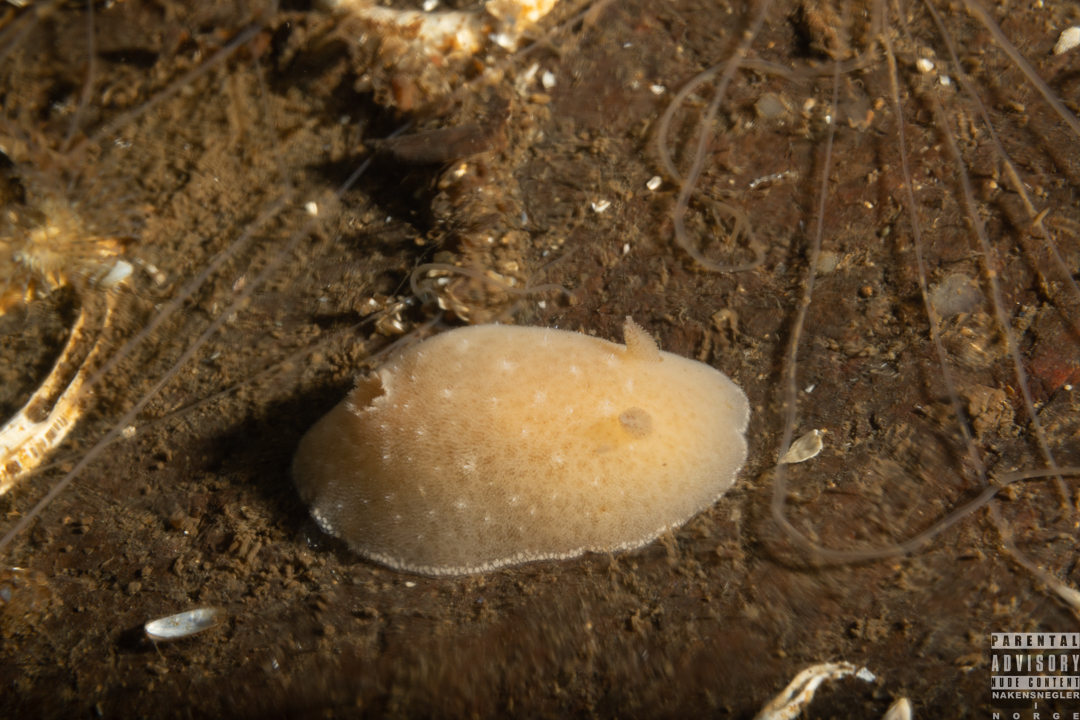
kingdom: Animalia
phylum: Mollusca
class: Gastropoda
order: Nudibranchia
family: Discodorididae
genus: Jorunna
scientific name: Jorunna tomentosa
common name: Grey sea slug
